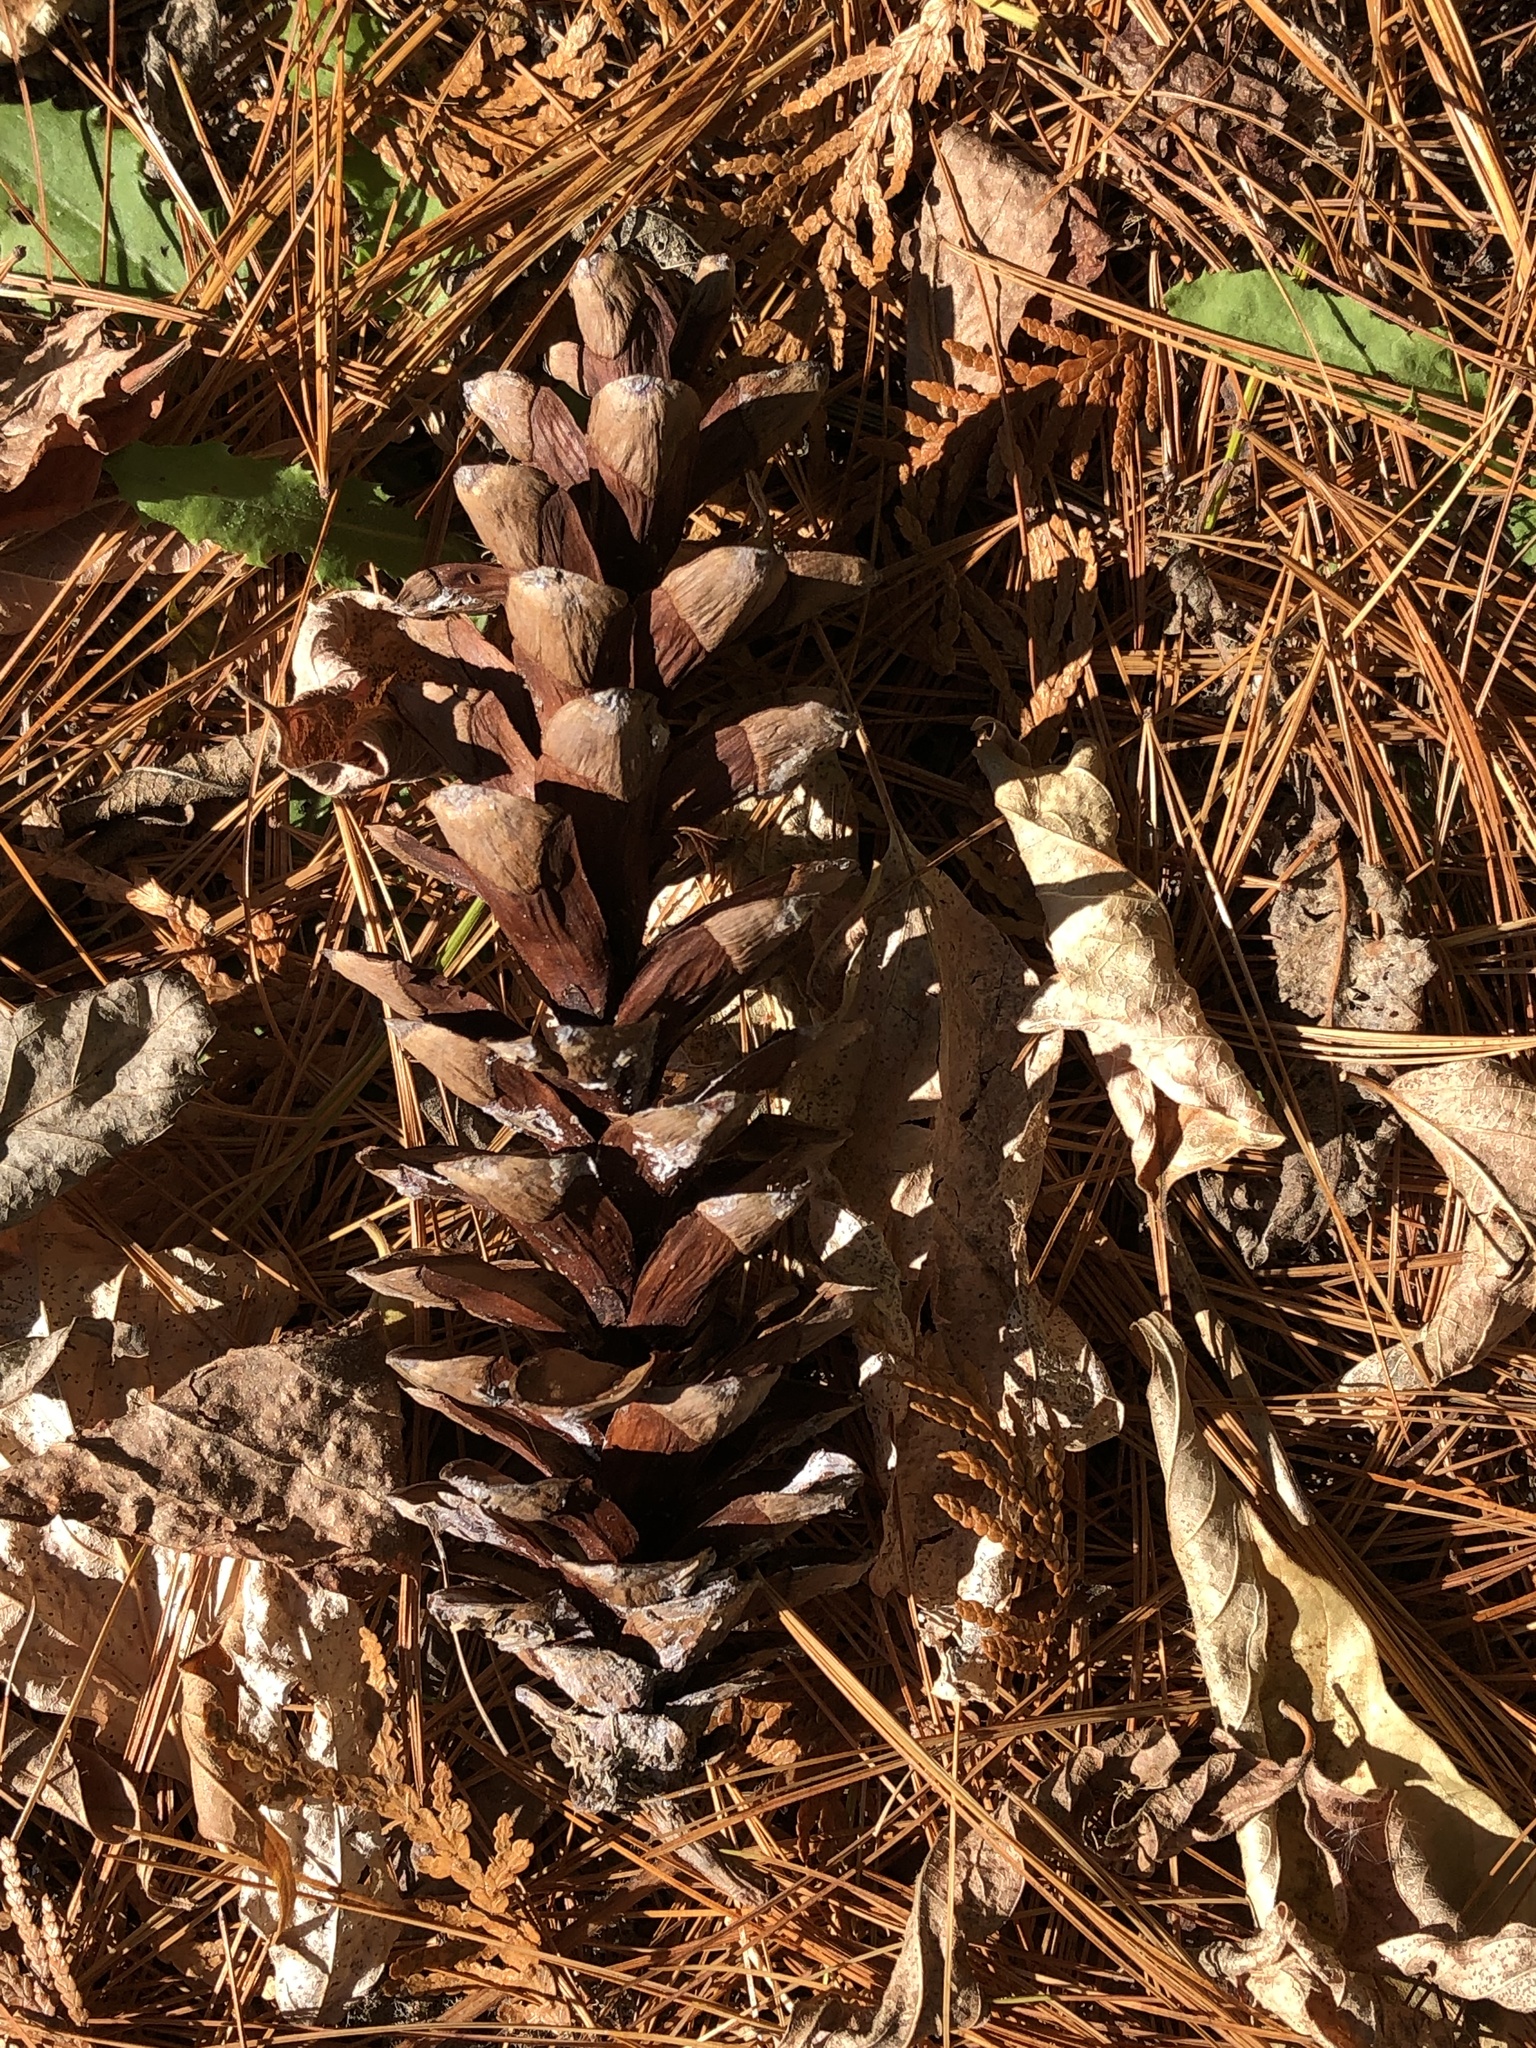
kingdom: Plantae
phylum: Tracheophyta
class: Pinopsida
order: Pinales
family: Pinaceae
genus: Pinus
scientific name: Pinus strobus
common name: Weymouth pine
